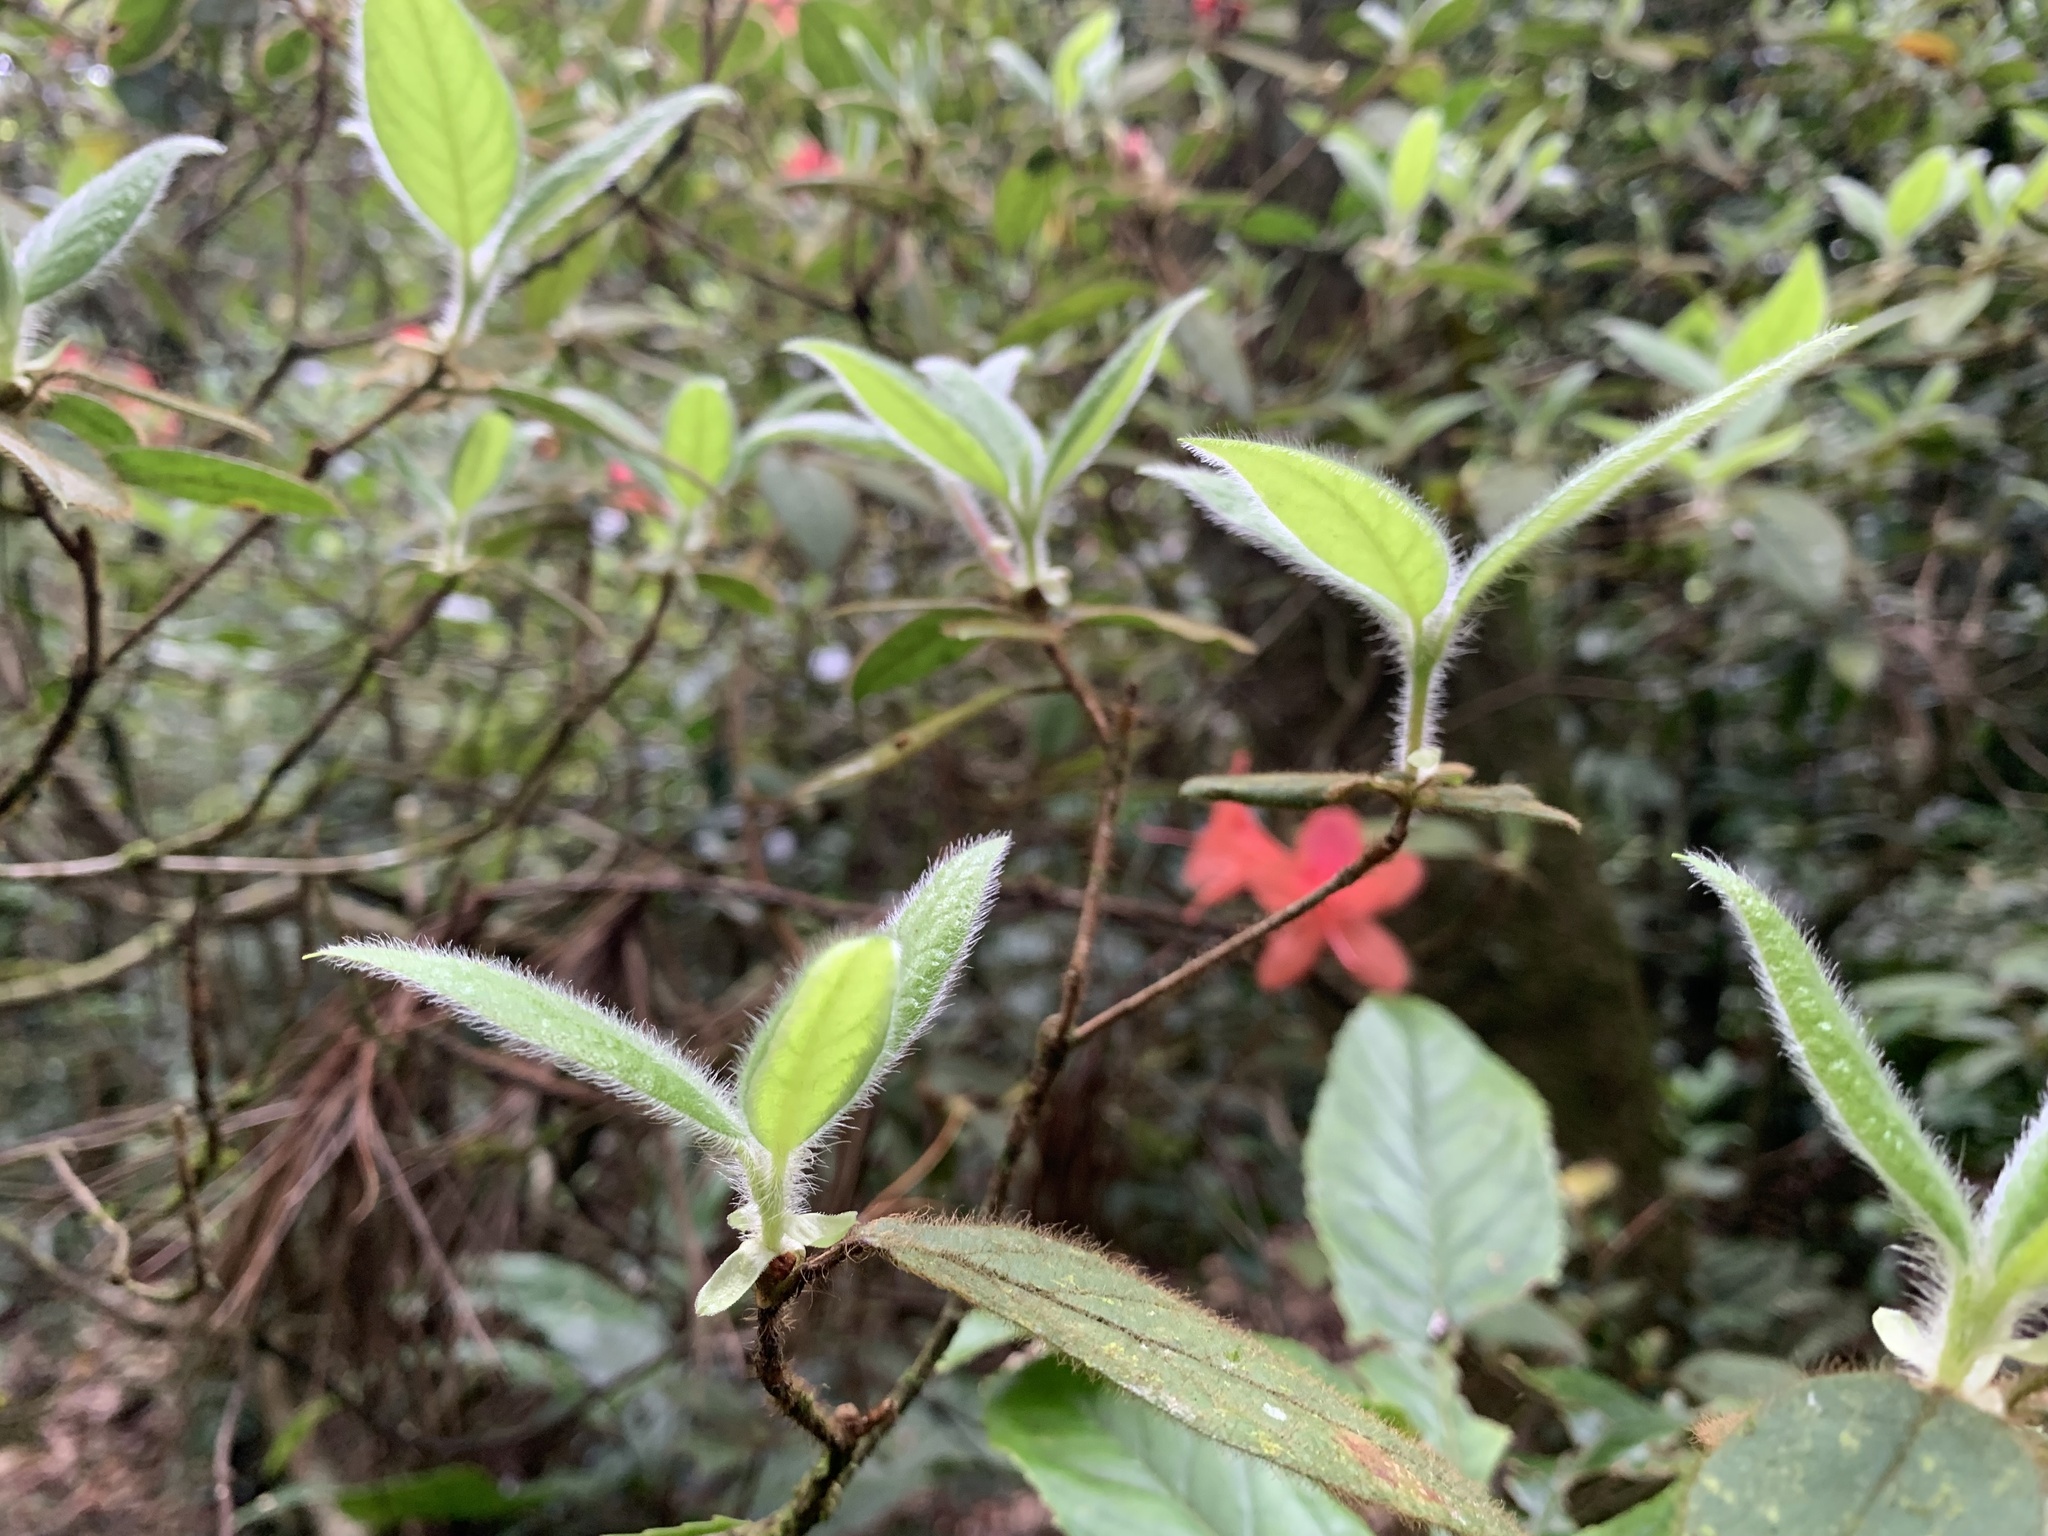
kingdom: Plantae
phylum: Tracheophyta
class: Magnoliopsida
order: Ericales
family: Ericaceae
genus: Rhododendron
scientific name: Rhododendron oldhamii
